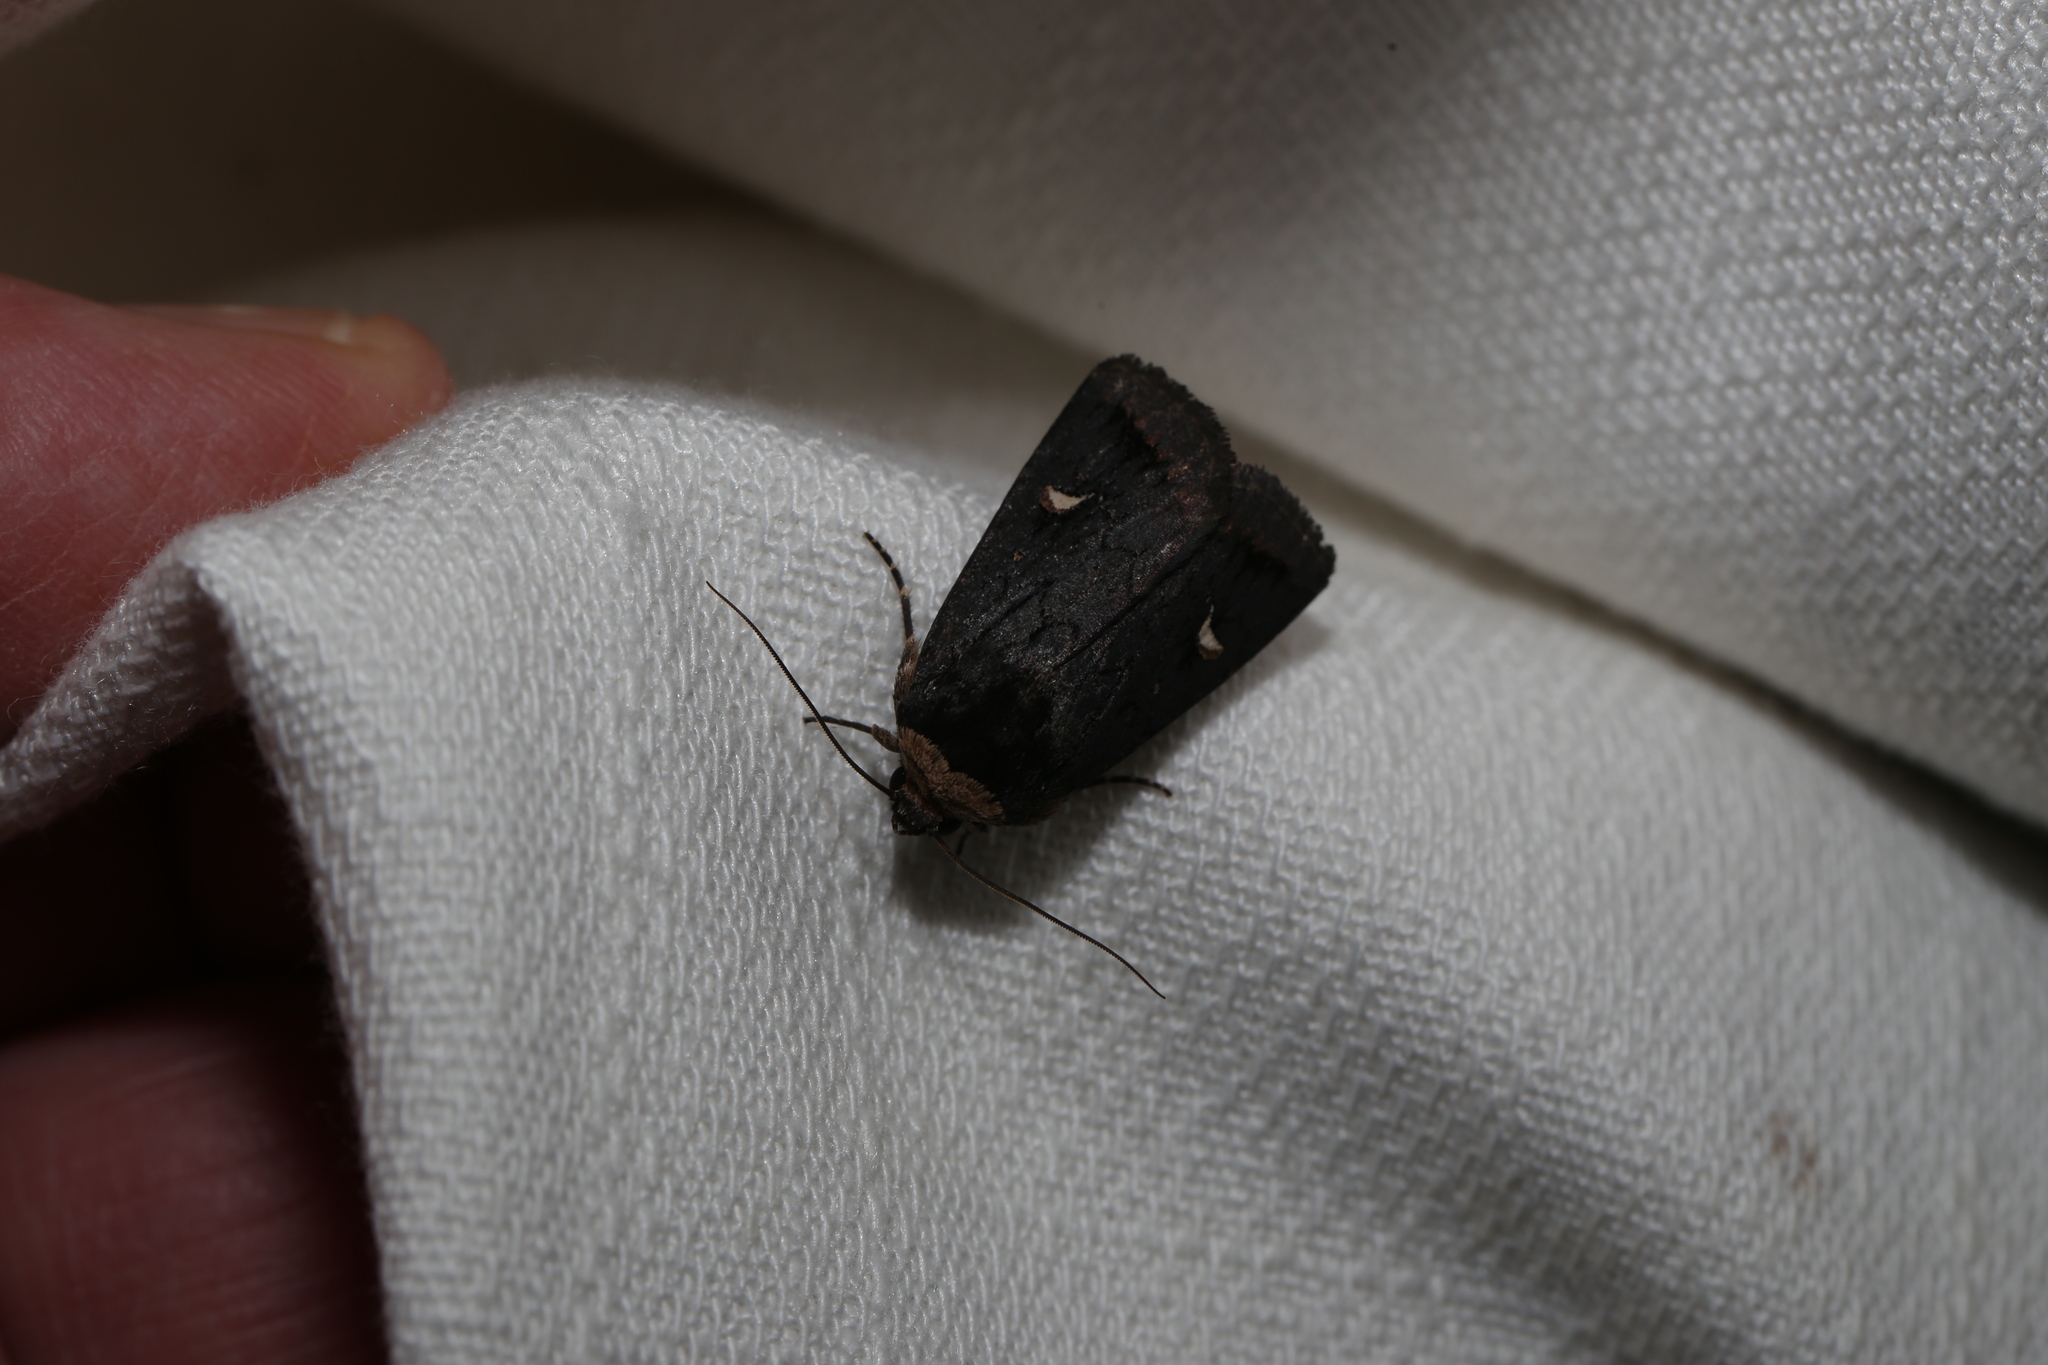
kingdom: Animalia
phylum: Arthropoda
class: Insecta
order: Lepidoptera
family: Noctuidae
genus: Proteuxoa
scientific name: Proteuxoa testaceicollis
